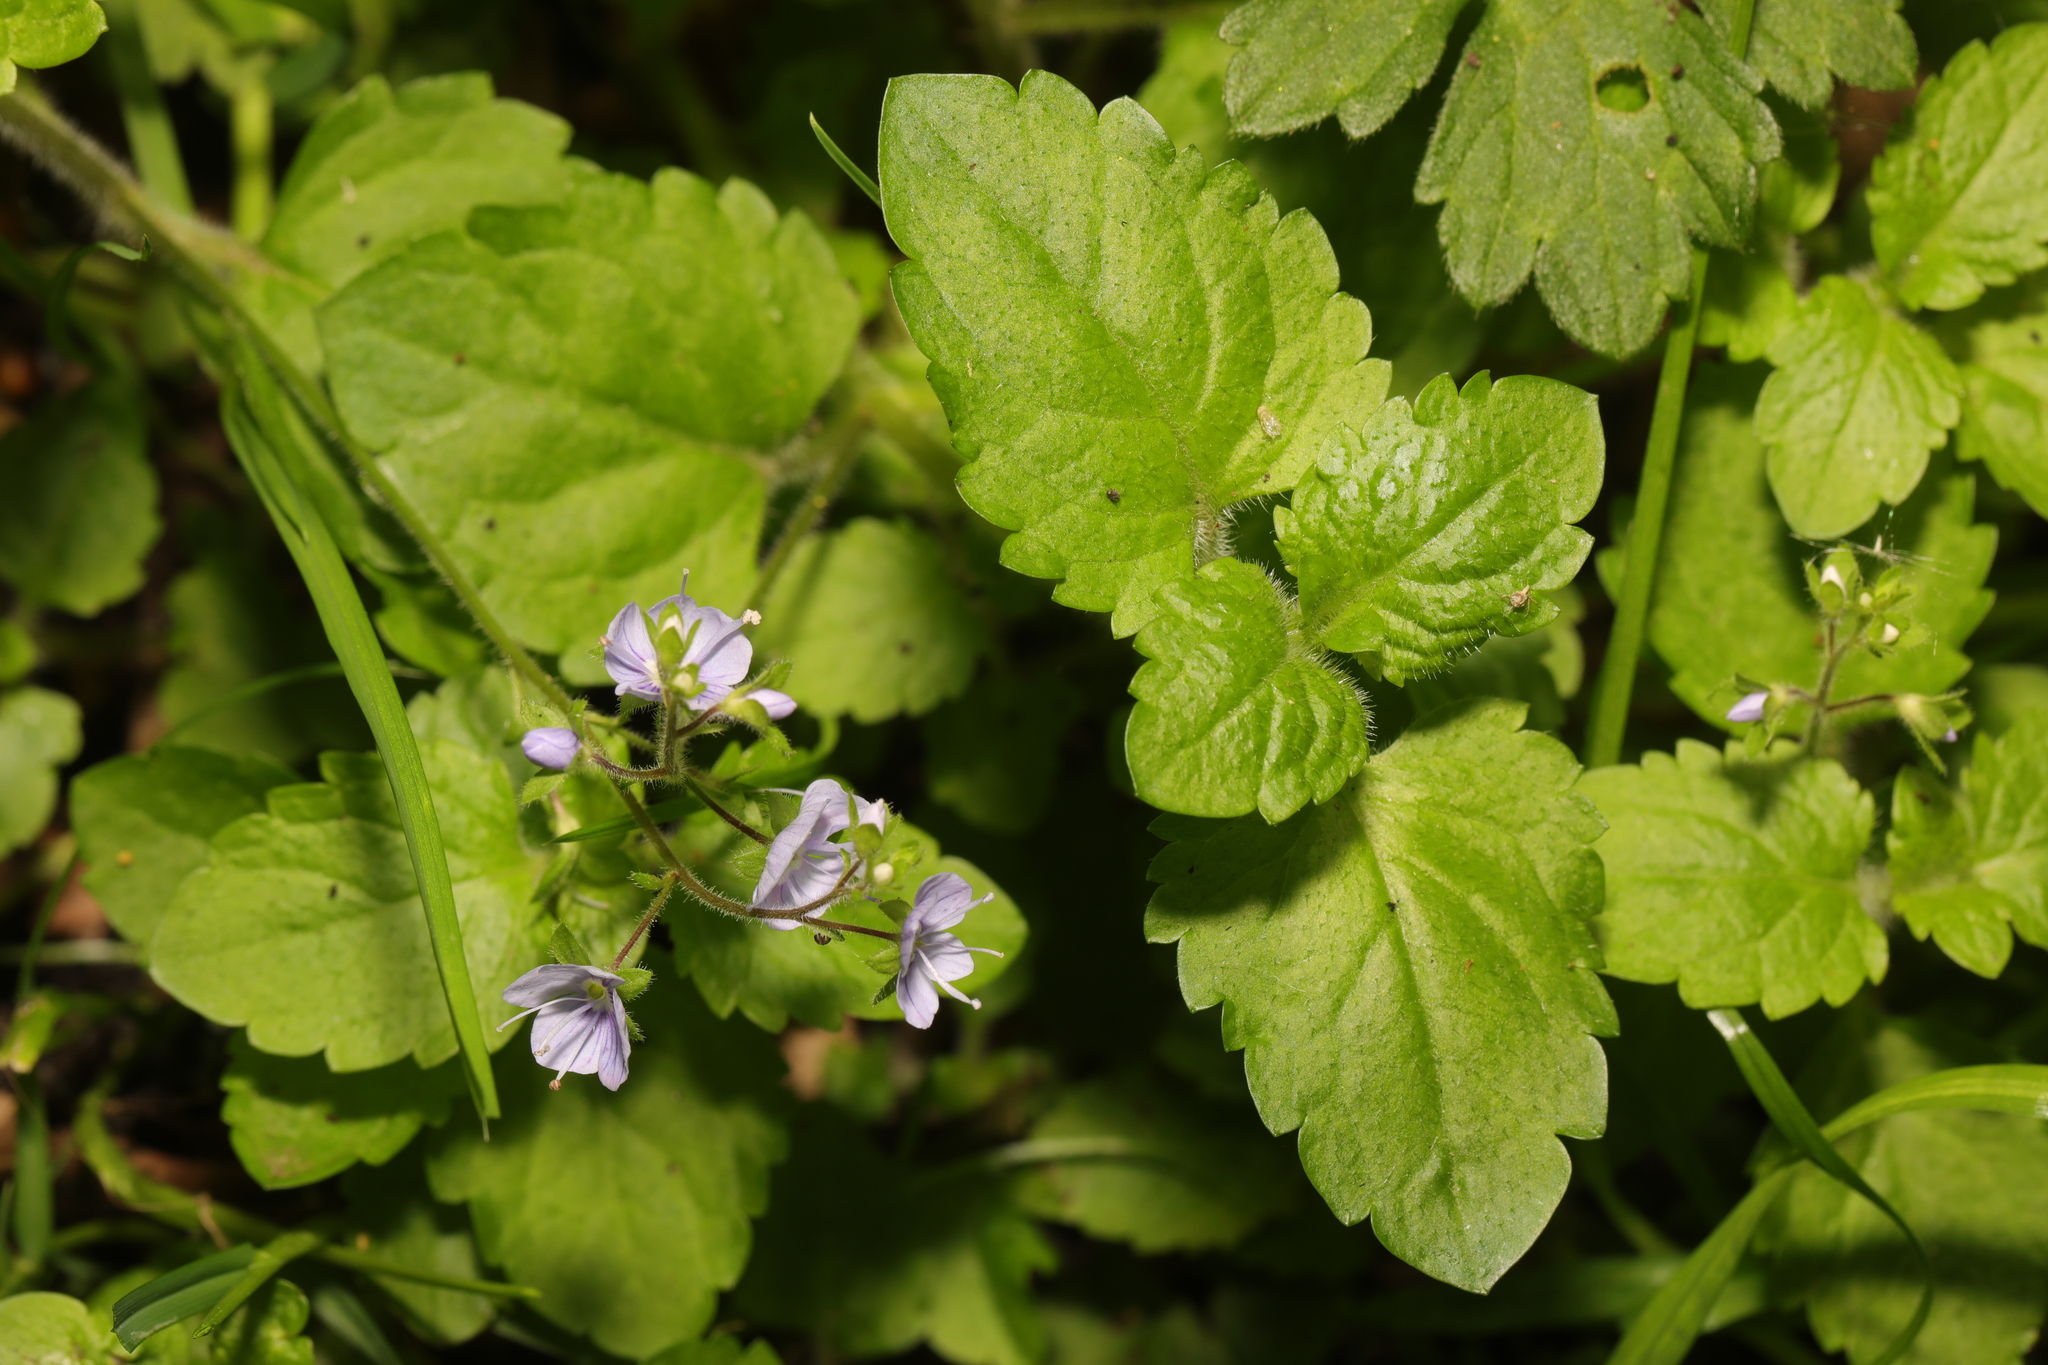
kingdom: Plantae
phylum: Tracheophyta
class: Magnoliopsida
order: Lamiales
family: Plantaginaceae
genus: Veronica
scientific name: Veronica montana
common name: Wood speedwell
